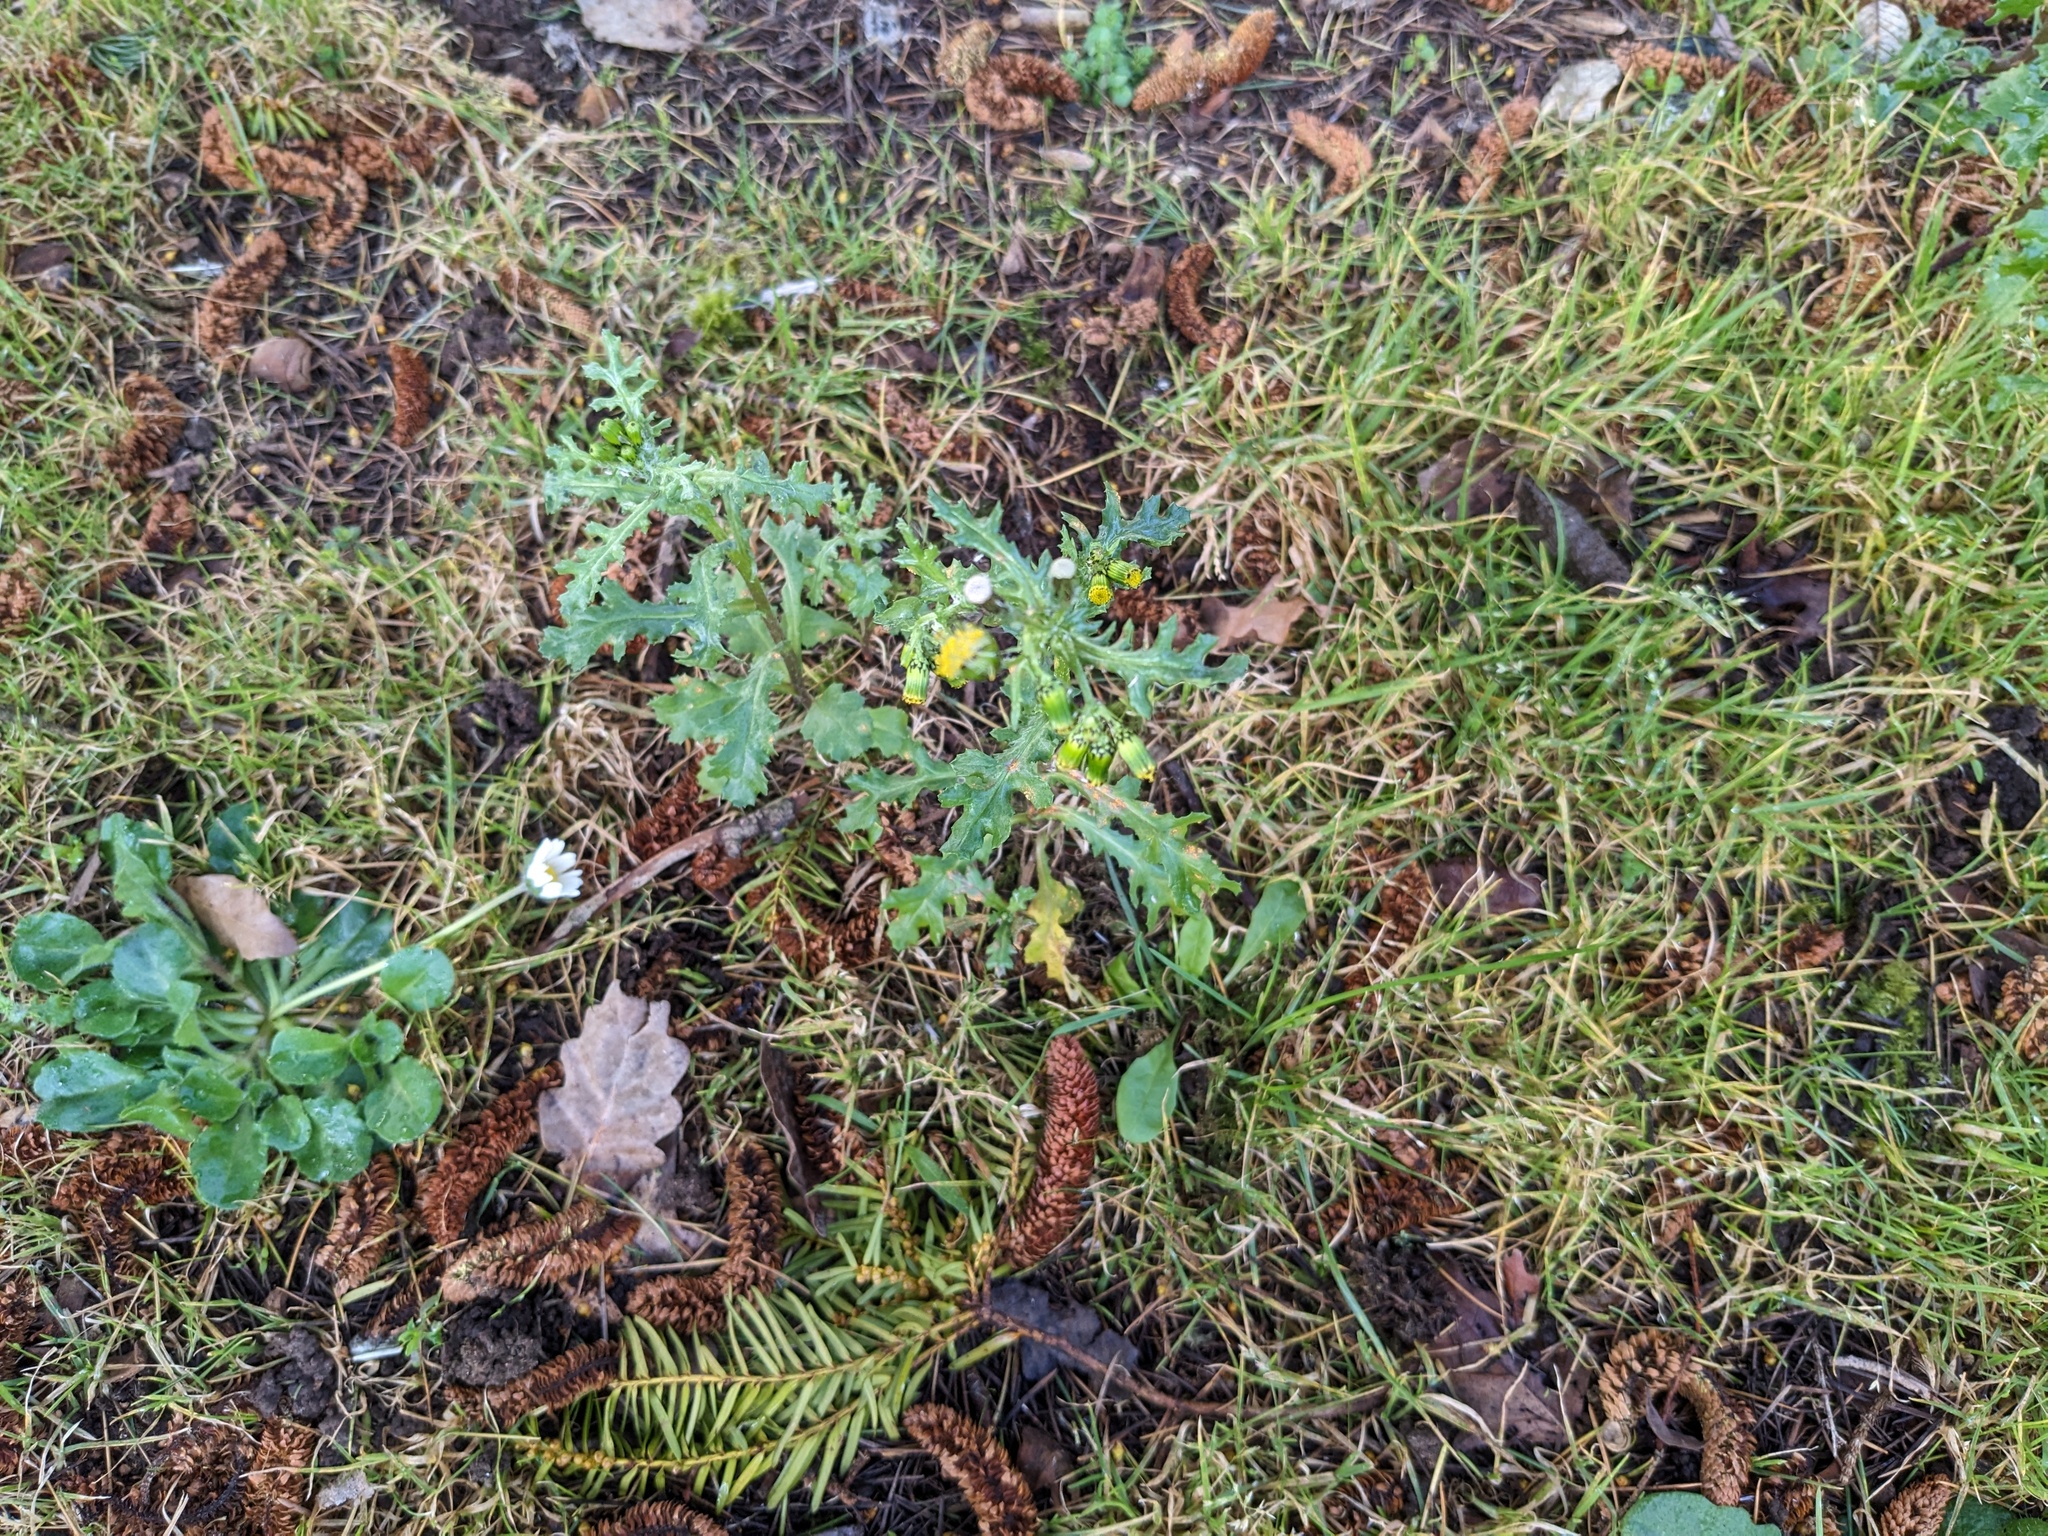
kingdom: Plantae
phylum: Tracheophyta
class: Magnoliopsida
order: Asterales
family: Asteraceae
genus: Senecio
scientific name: Senecio vulgaris
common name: Old-man-in-the-spring
